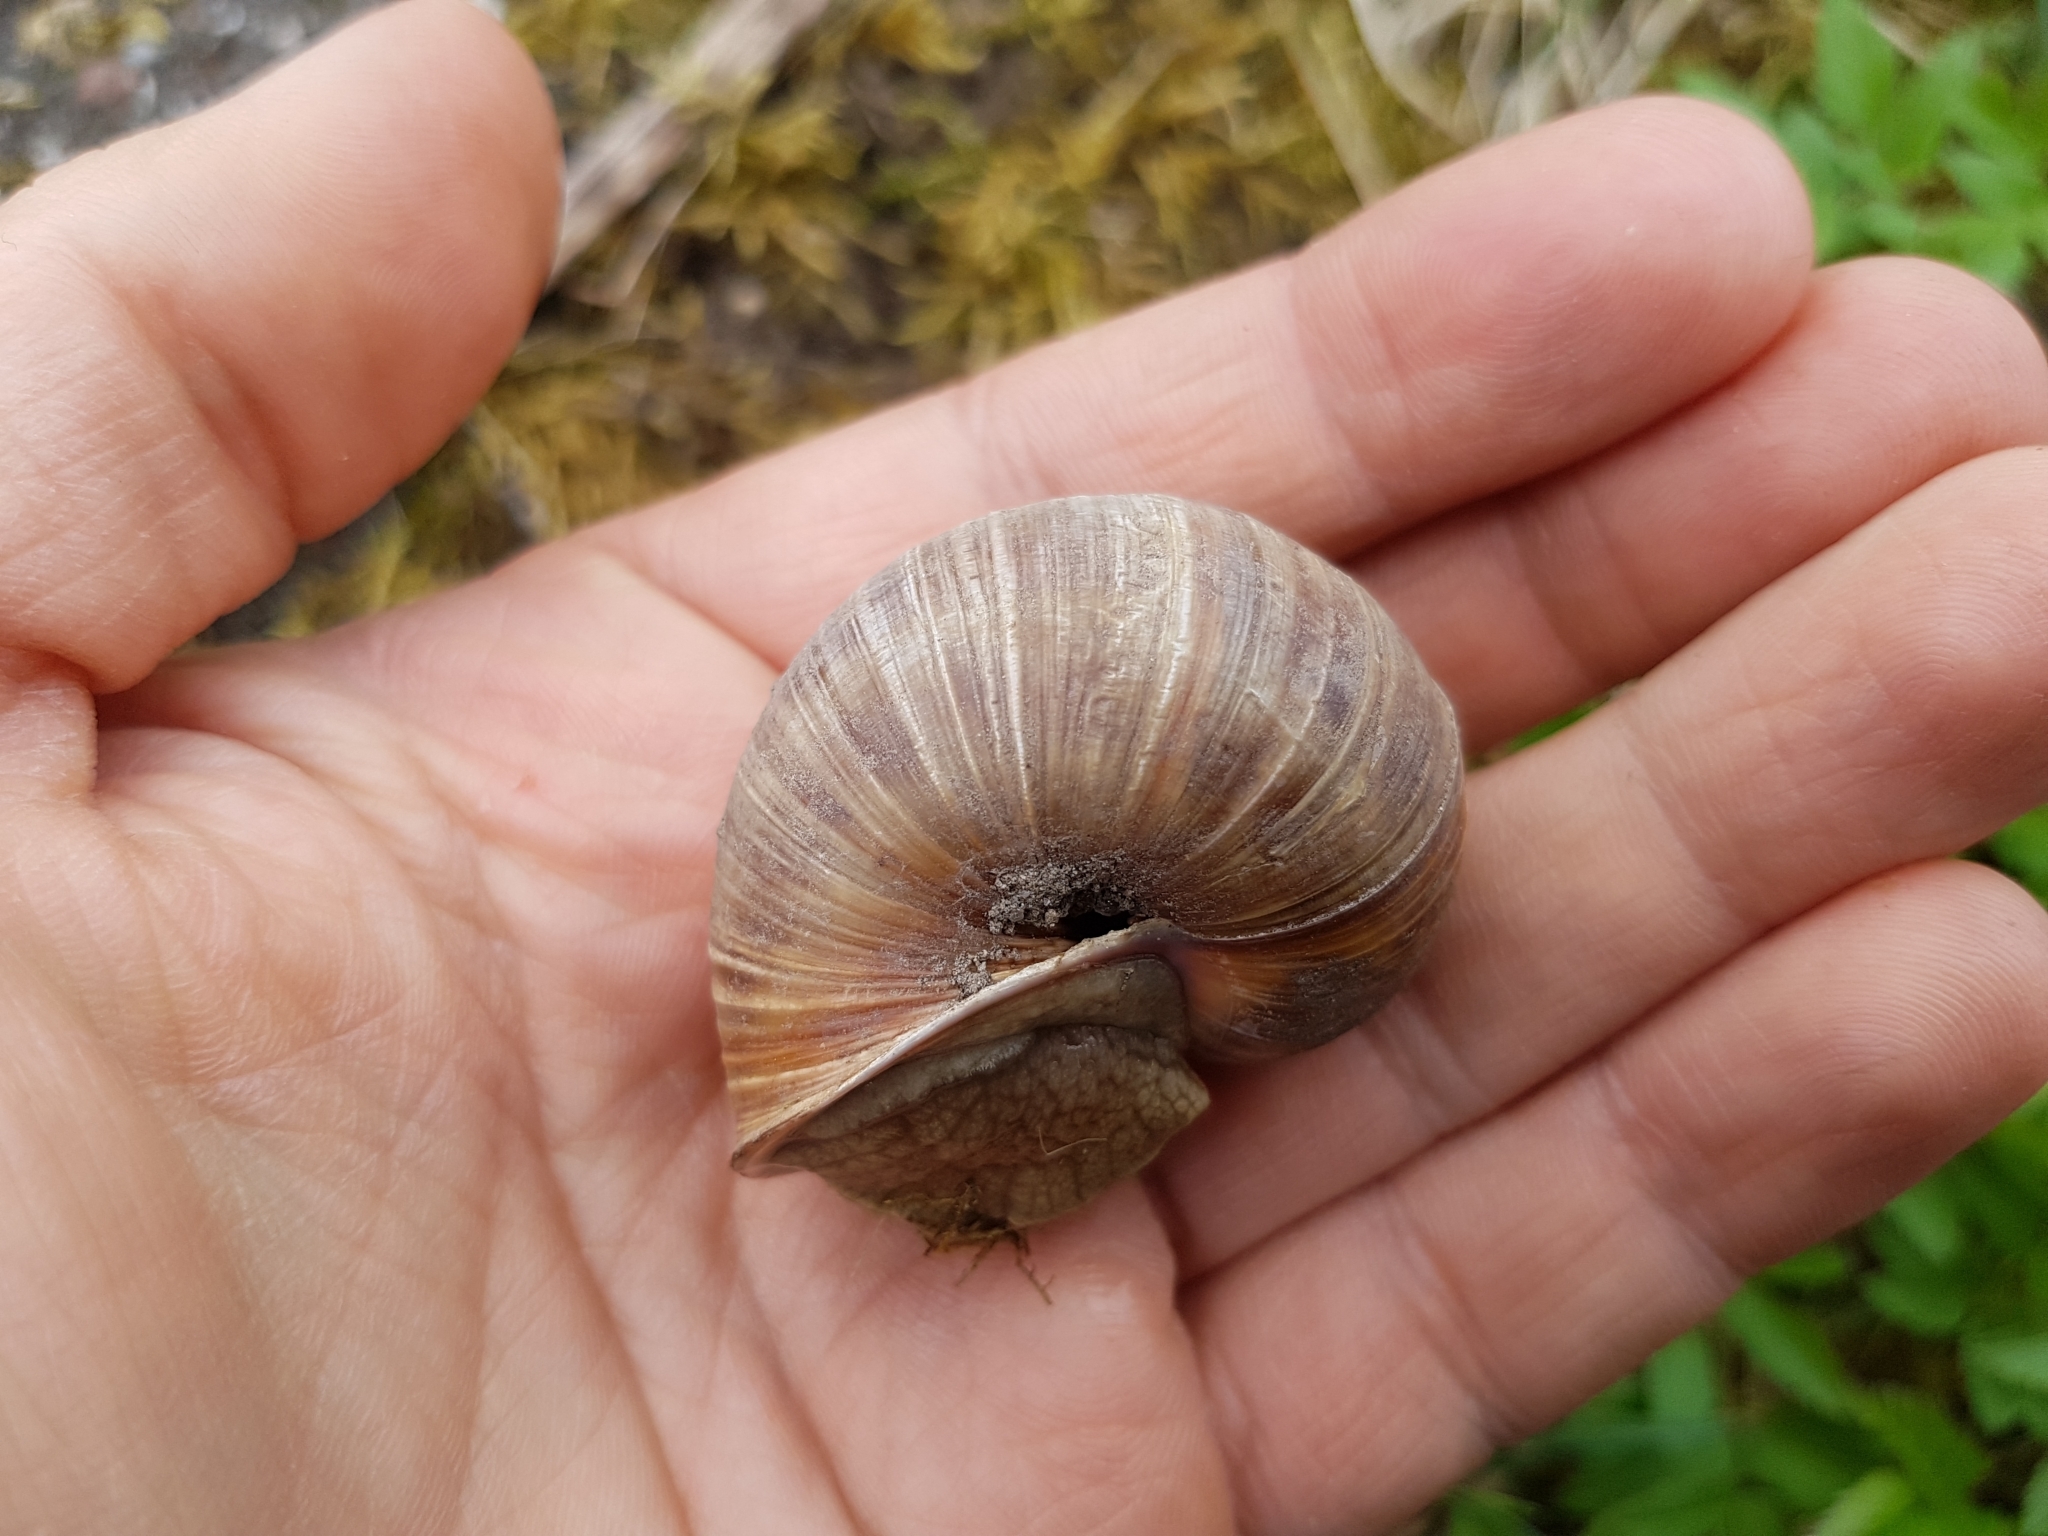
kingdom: Animalia
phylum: Mollusca
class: Gastropoda
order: Stylommatophora
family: Helicidae
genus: Helix
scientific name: Helix pomatia
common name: Roman snail
